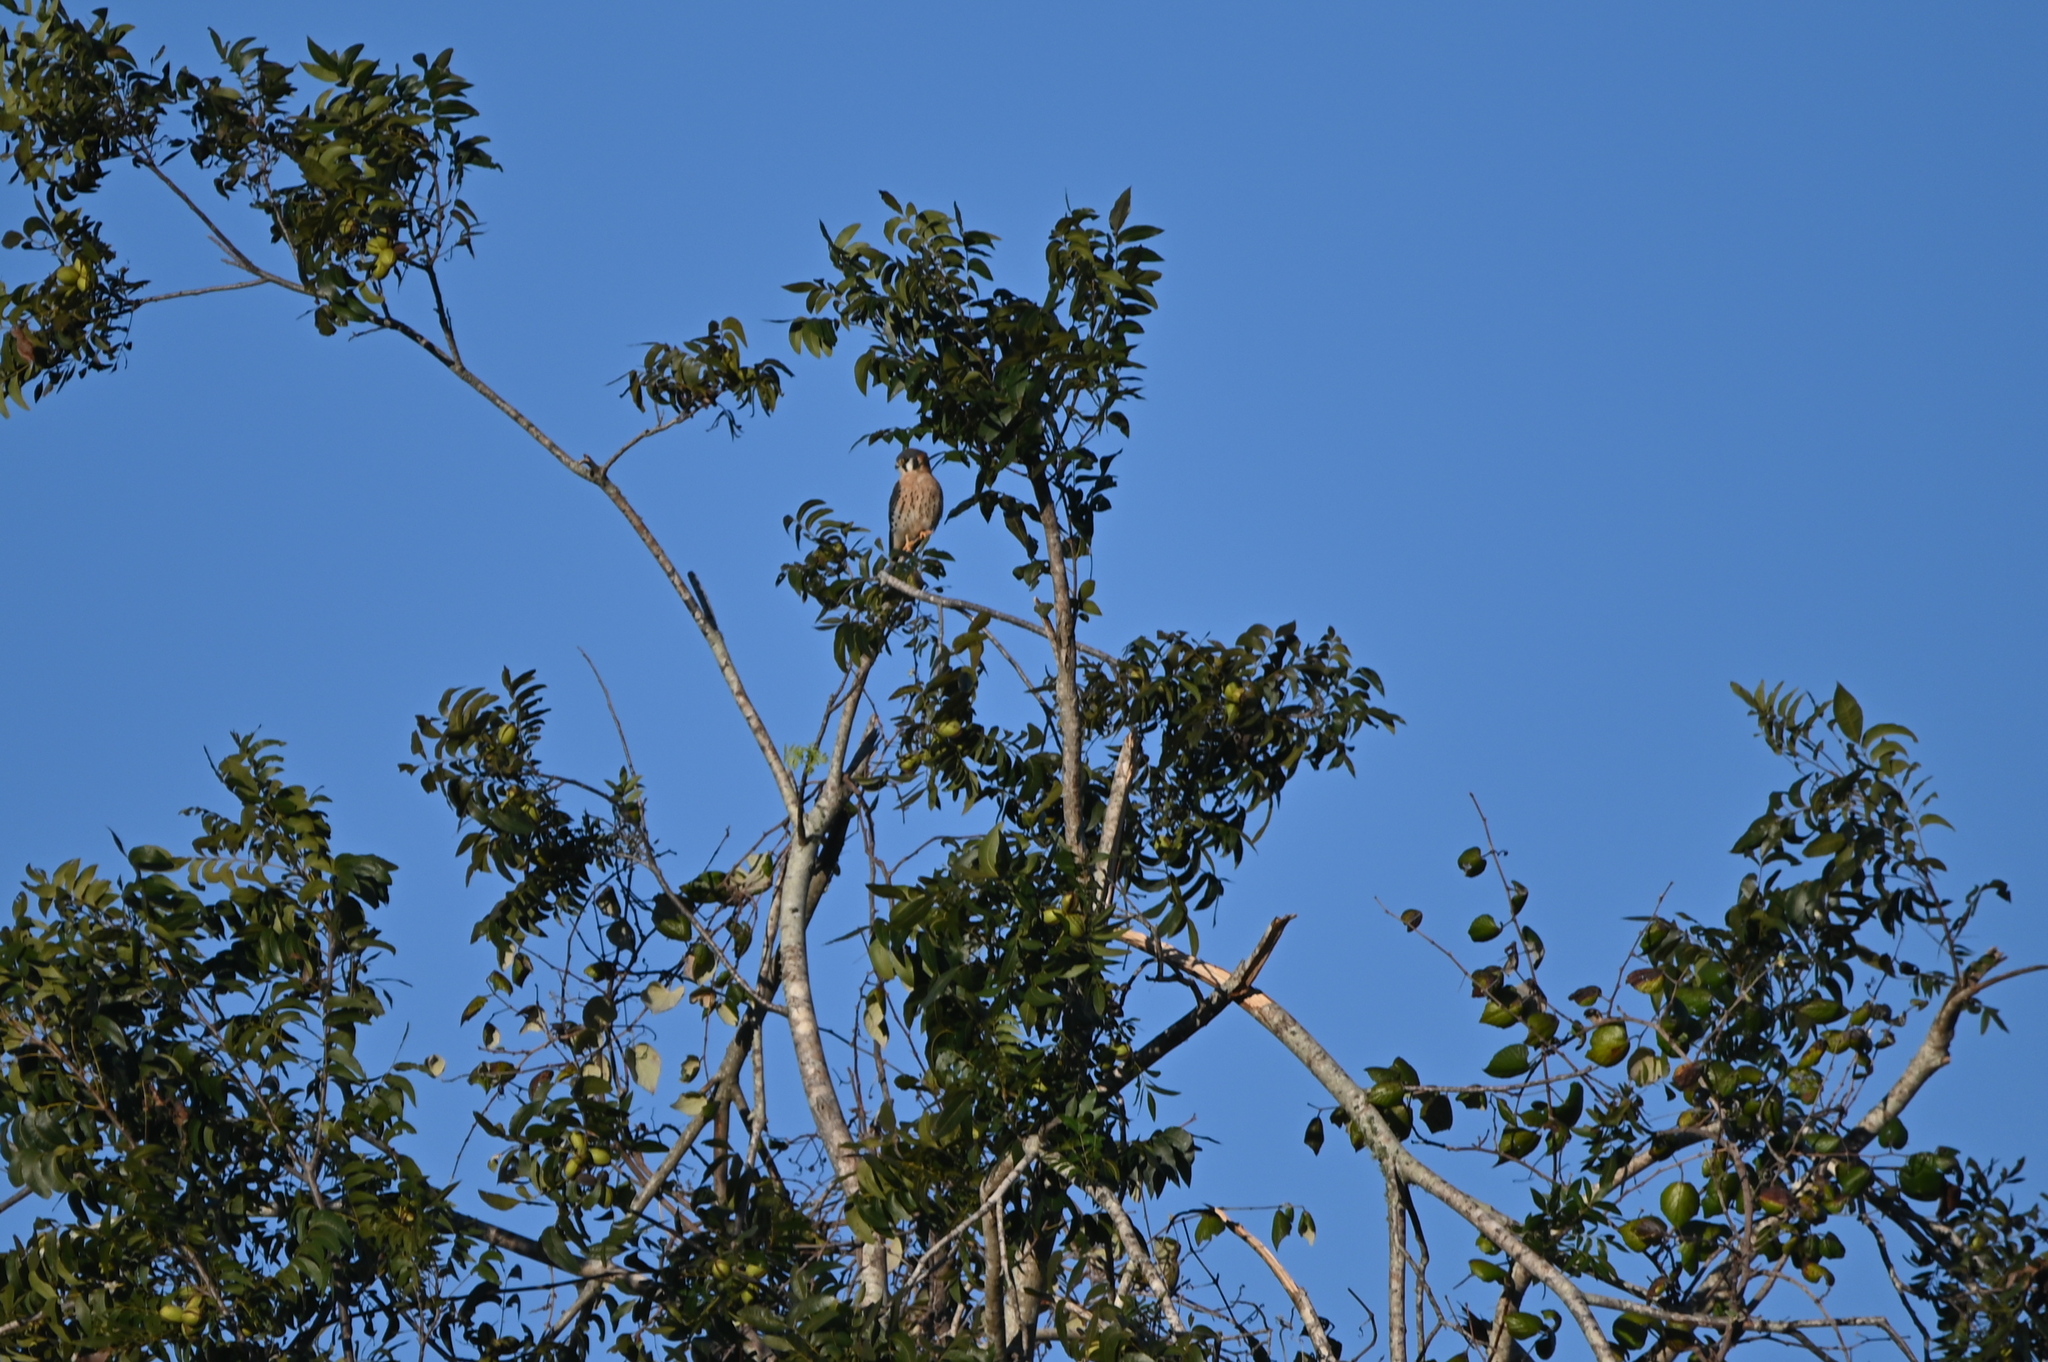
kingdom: Animalia
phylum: Chordata
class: Aves
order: Falconiformes
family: Falconidae
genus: Falco
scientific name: Falco sparverius
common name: American kestrel
